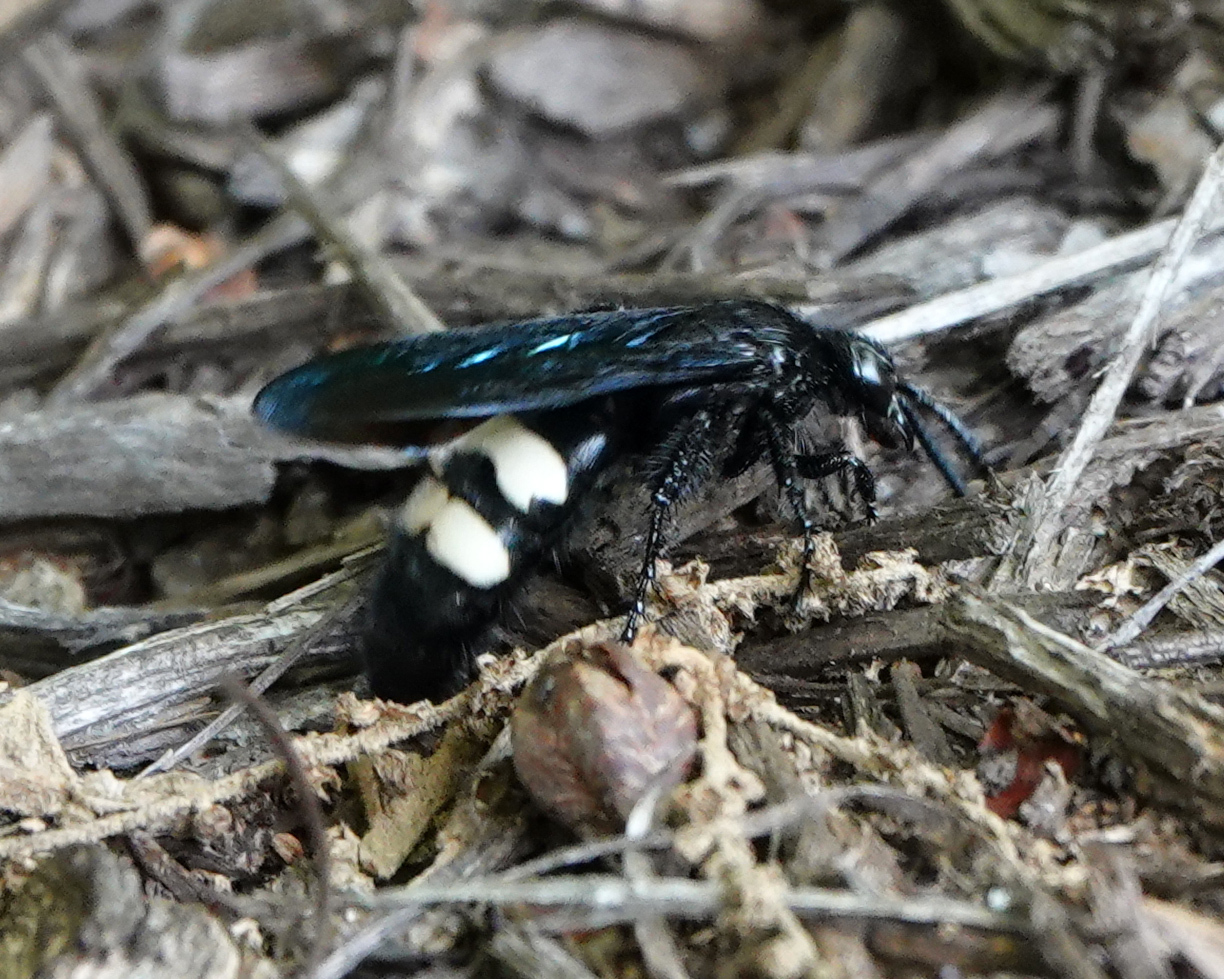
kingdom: Animalia
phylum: Arthropoda
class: Insecta
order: Hymenoptera
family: Scoliidae
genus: Scolia
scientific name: Scolia bicincta
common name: Double-banded scoliid wasp
